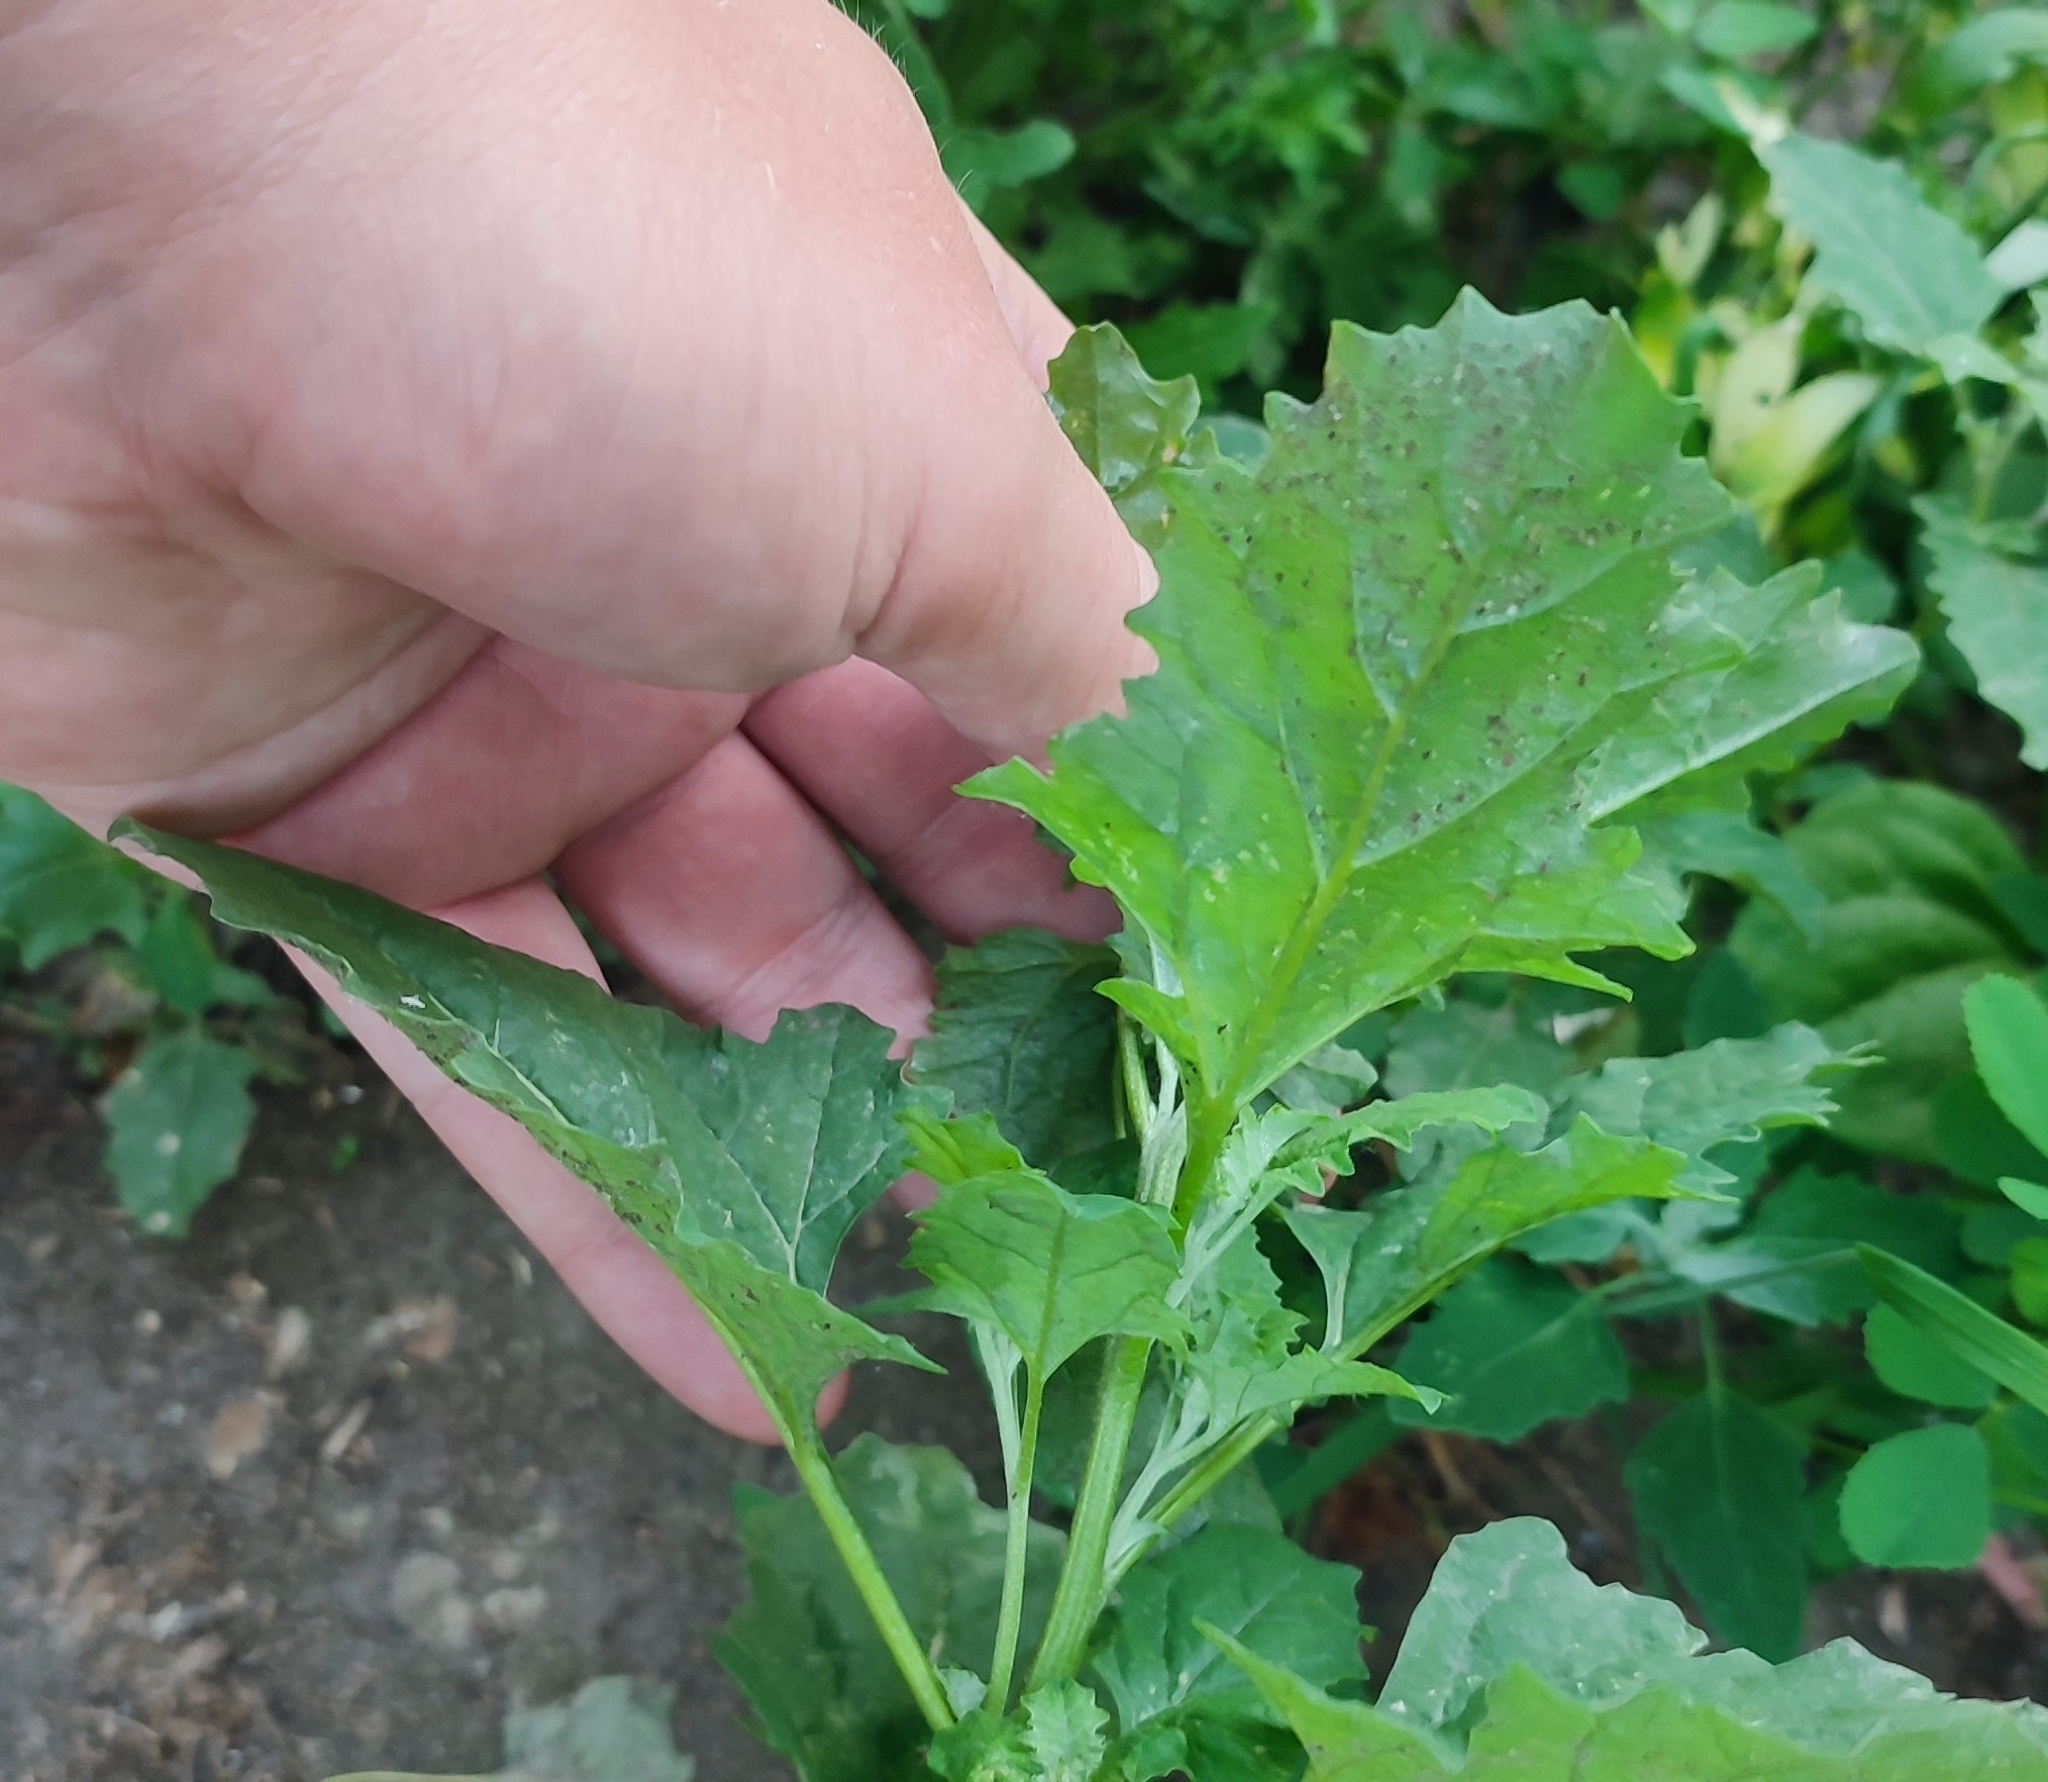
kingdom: Plantae
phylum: Tracheophyta
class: Magnoliopsida
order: Caryophyllales
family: Amaranthaceae
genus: Atriplex
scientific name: Atriplex tatarica
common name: Tatarian orache
